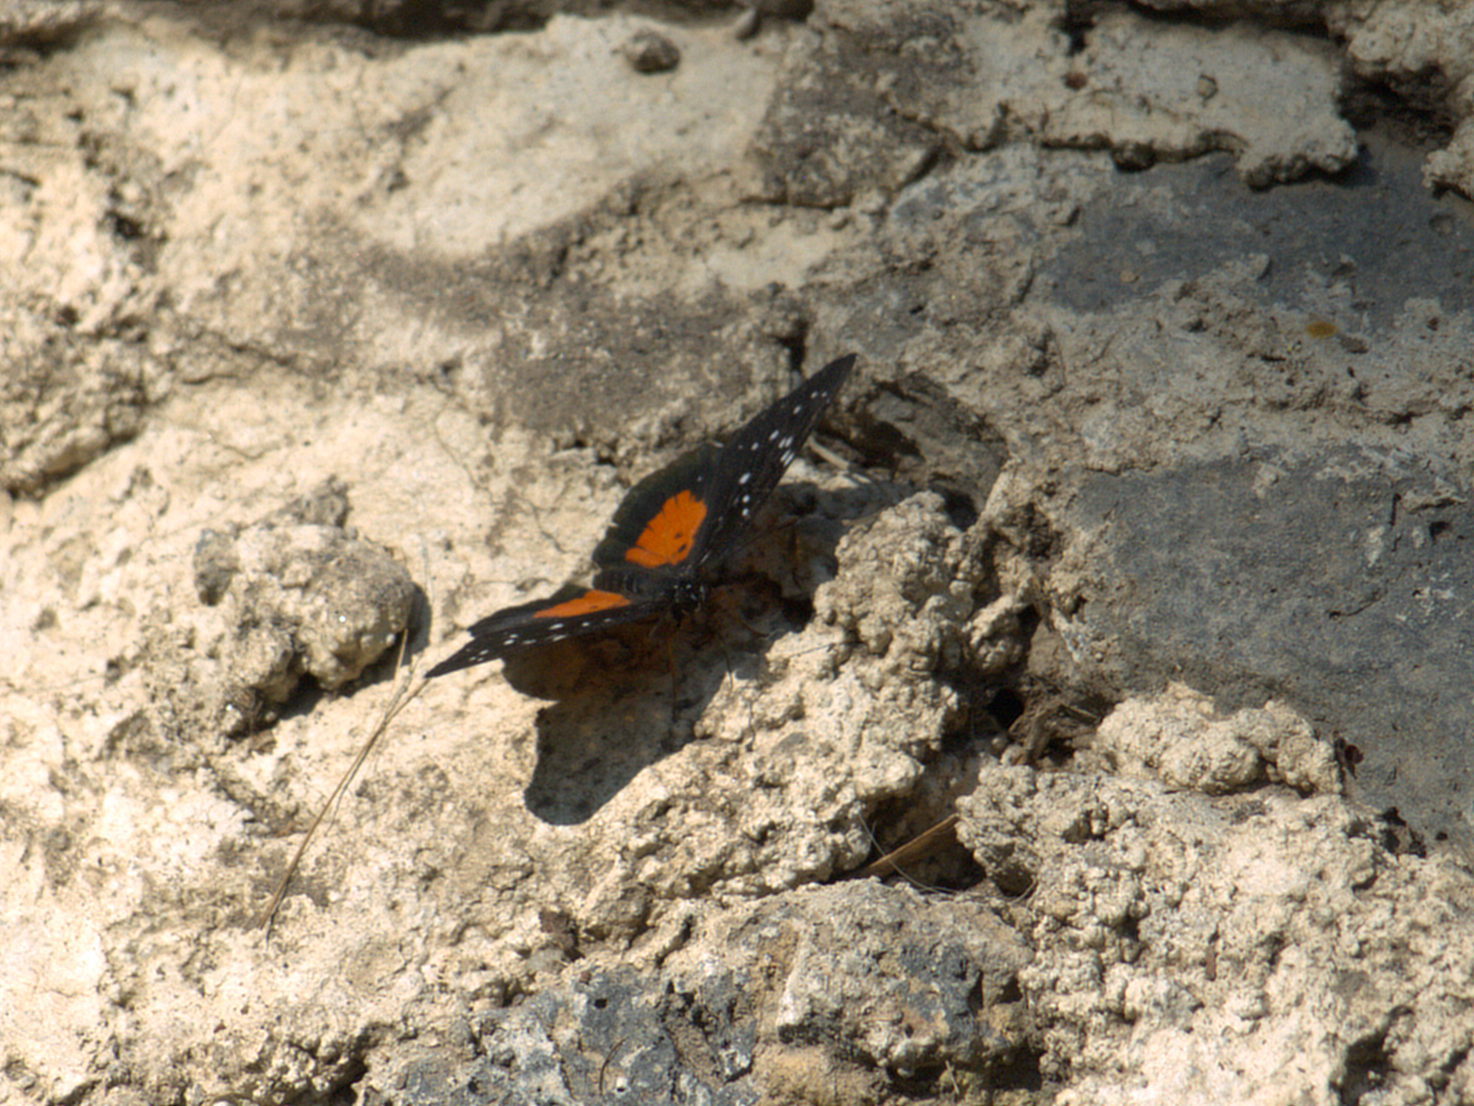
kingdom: Animalia
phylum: Arthropoda
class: Insecta
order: Lepidoptera
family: Nymphalidae
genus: Chlosyne
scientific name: Chlosyne janais
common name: Crimson patch
